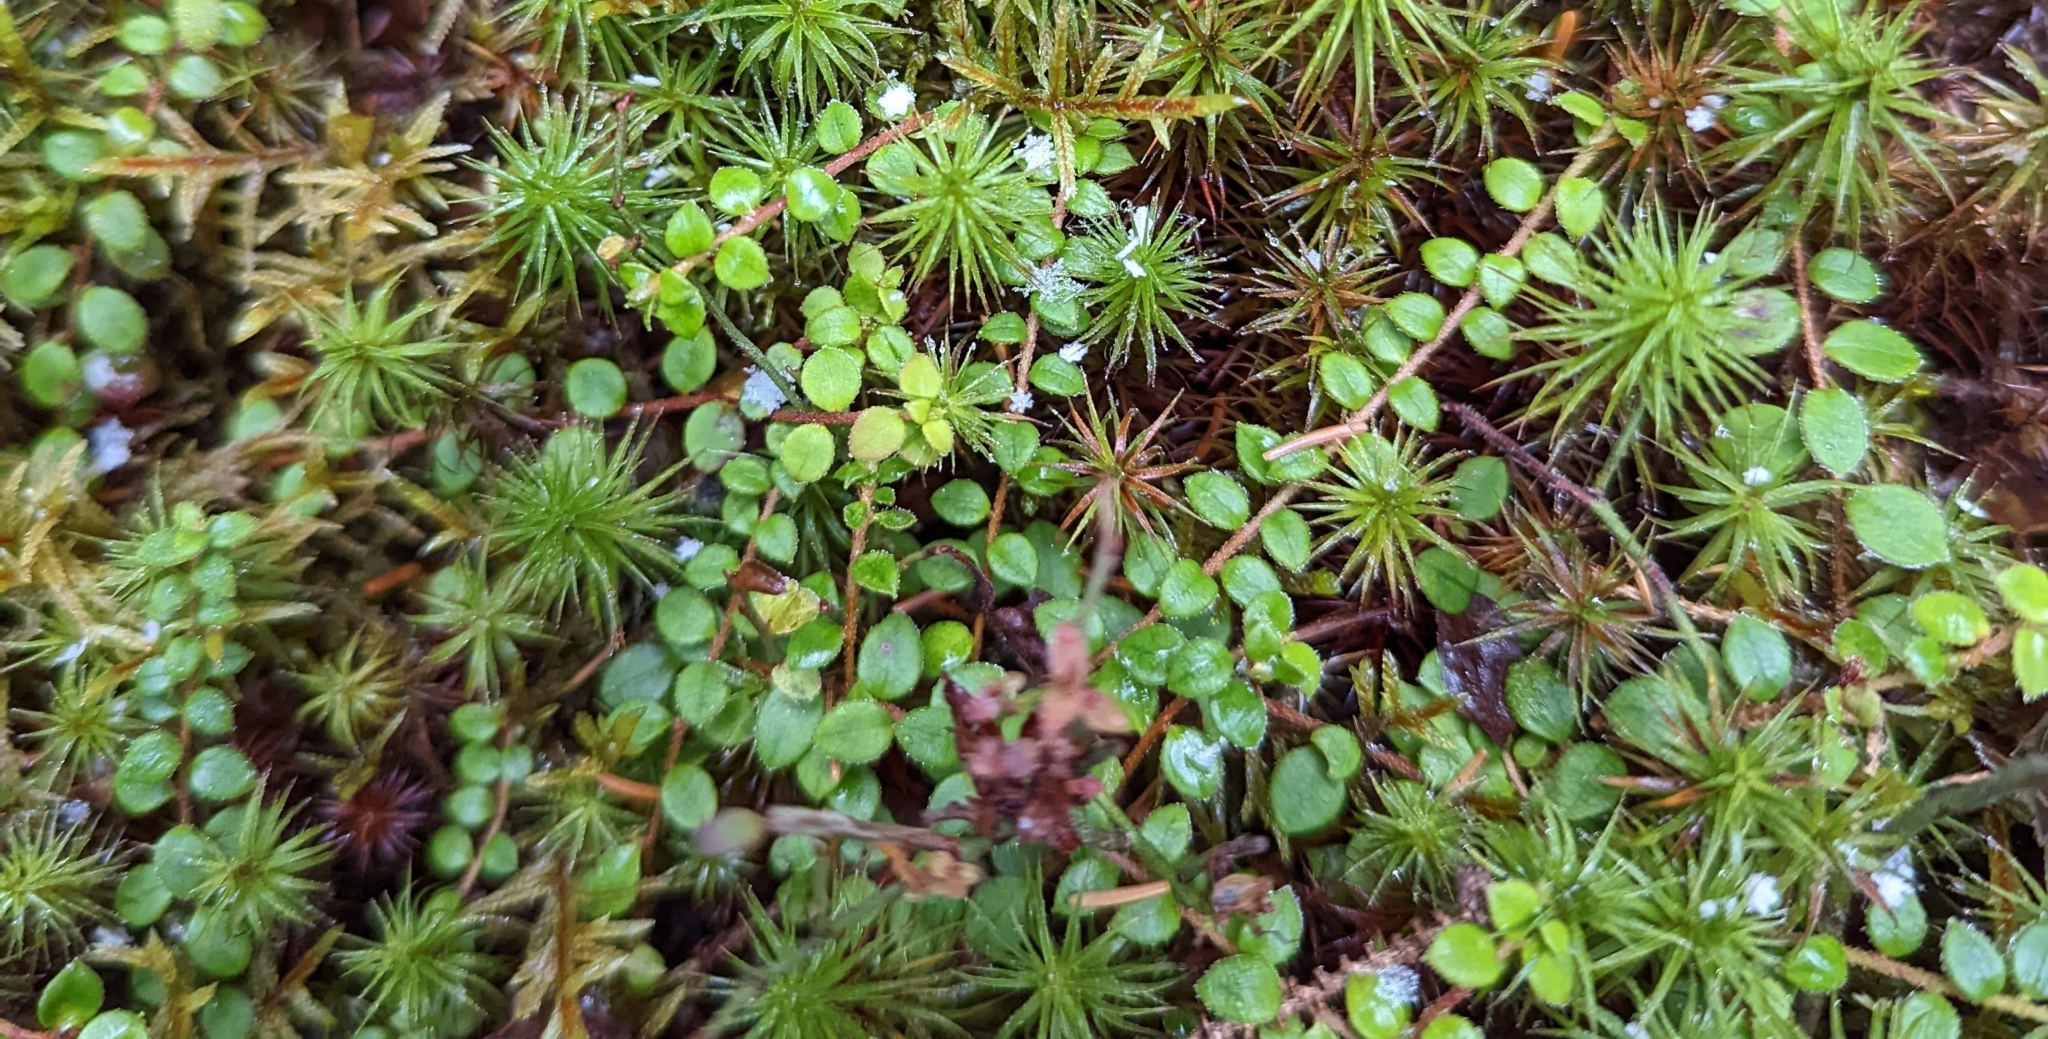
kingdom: Plantae
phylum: Tracheophyta
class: Magnoliopsida
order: Ericales
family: Ericaceae
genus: Gaultheria
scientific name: Gaultheria hispidula
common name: Cancer wintergreen
